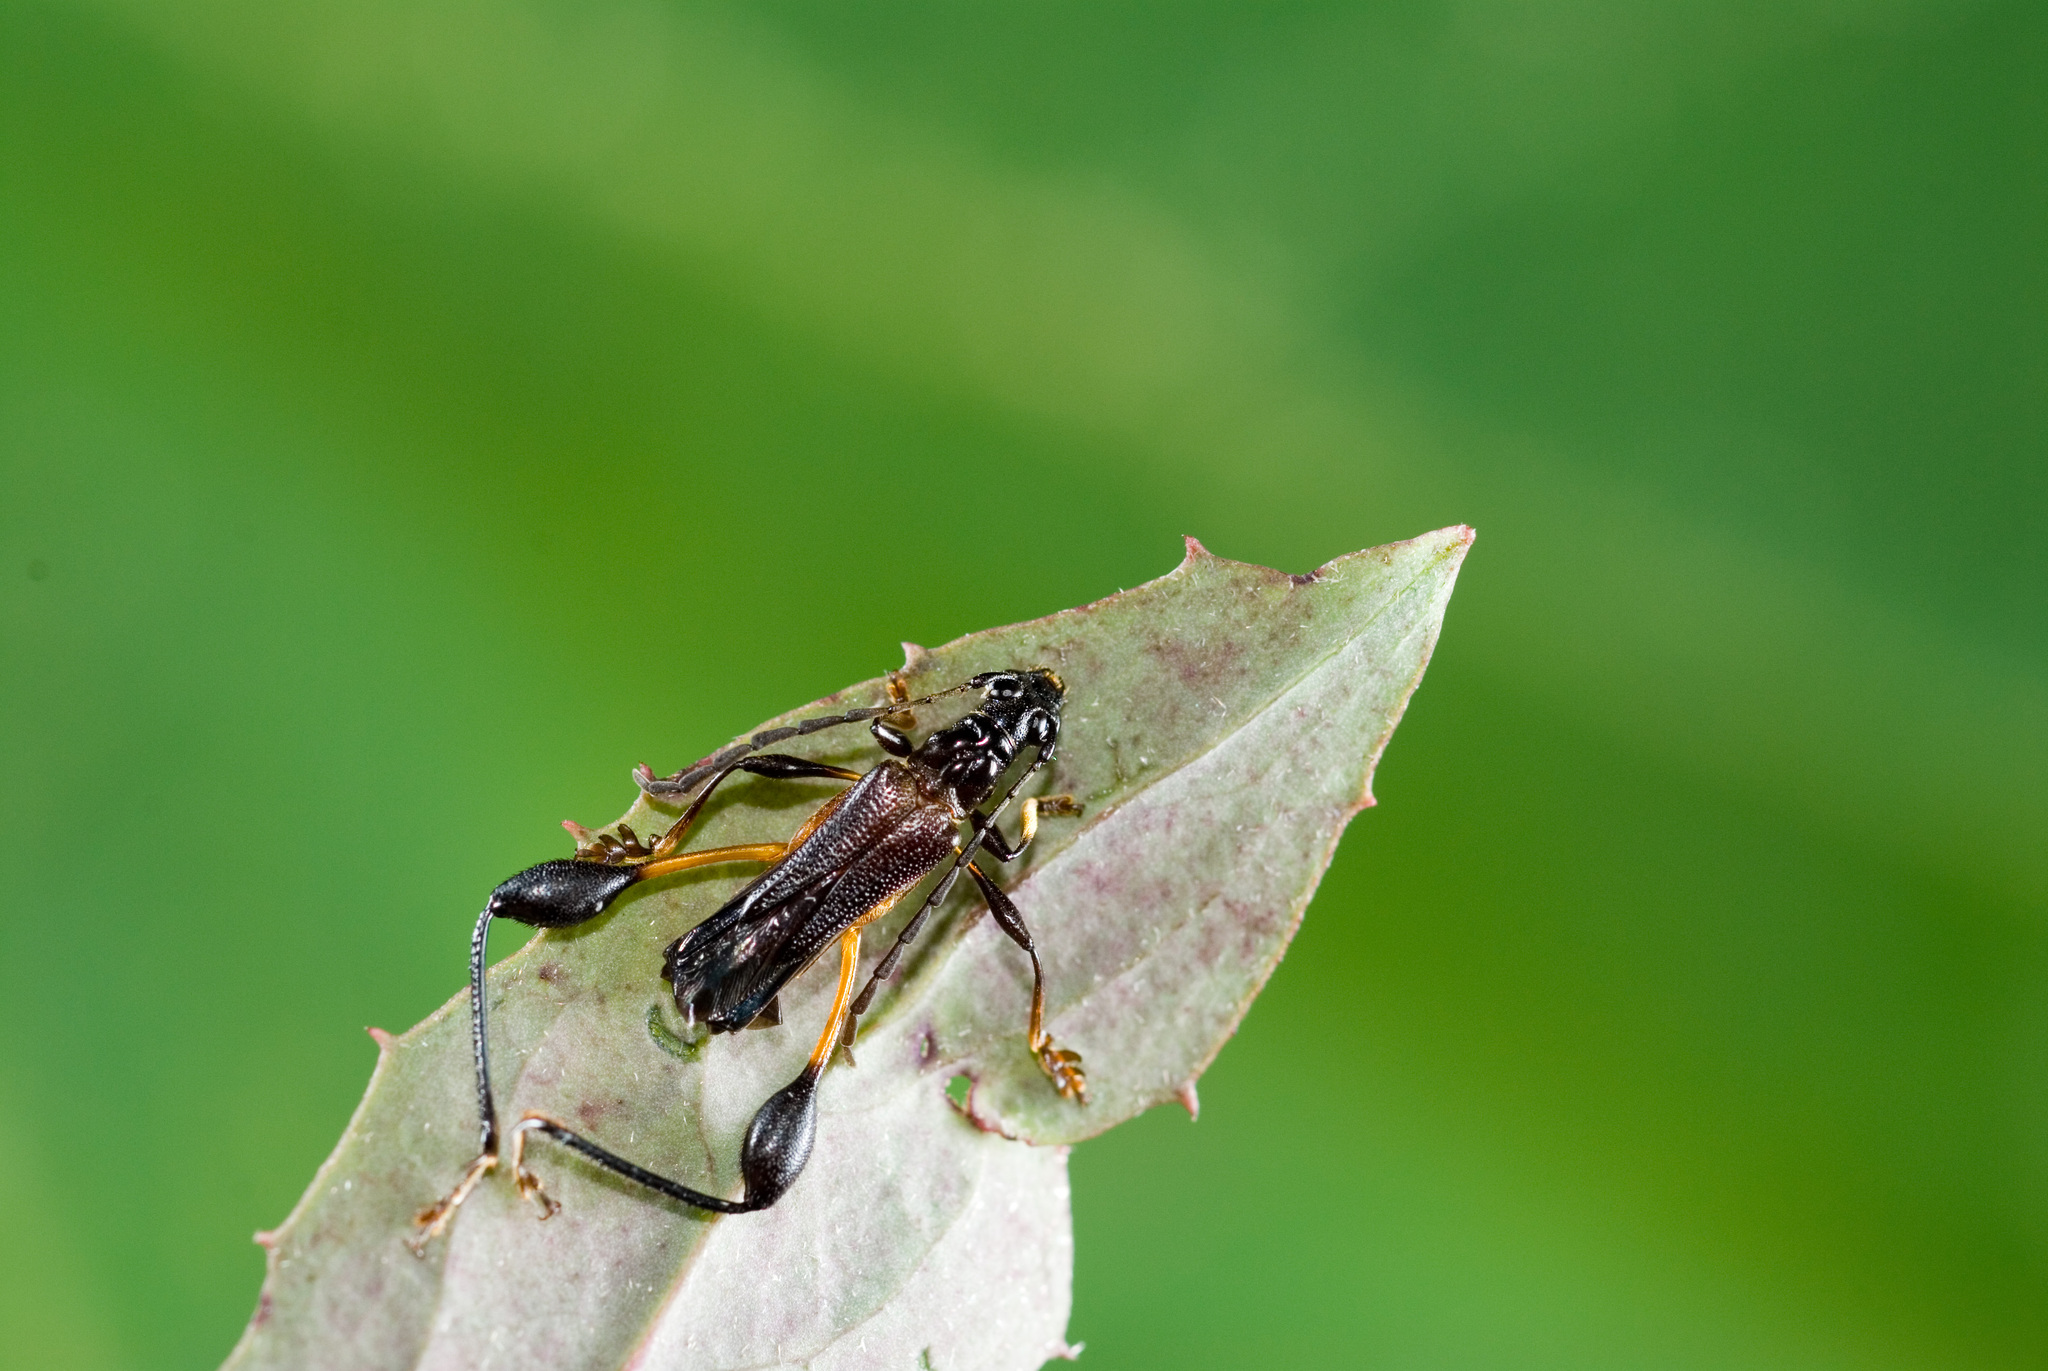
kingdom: Animalia
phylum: Arthropoda
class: Insecta
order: Coleoptera
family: Cerambycidae
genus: Merionoeda
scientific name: Merionoeda formosana
